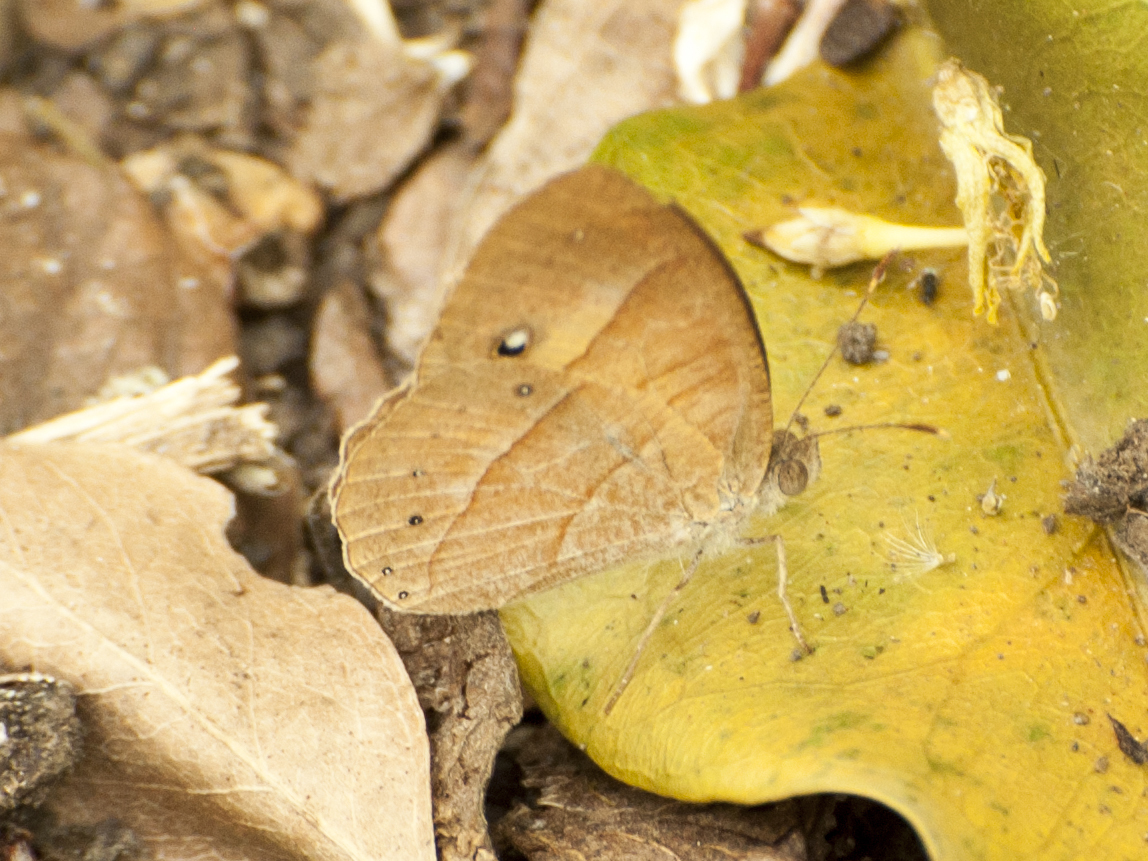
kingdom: Animalia
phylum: Arthropoda
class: Insecta
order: Lepidoptera
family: Nymphalidae
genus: Heteropsis
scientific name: Heteropsis fraterna
